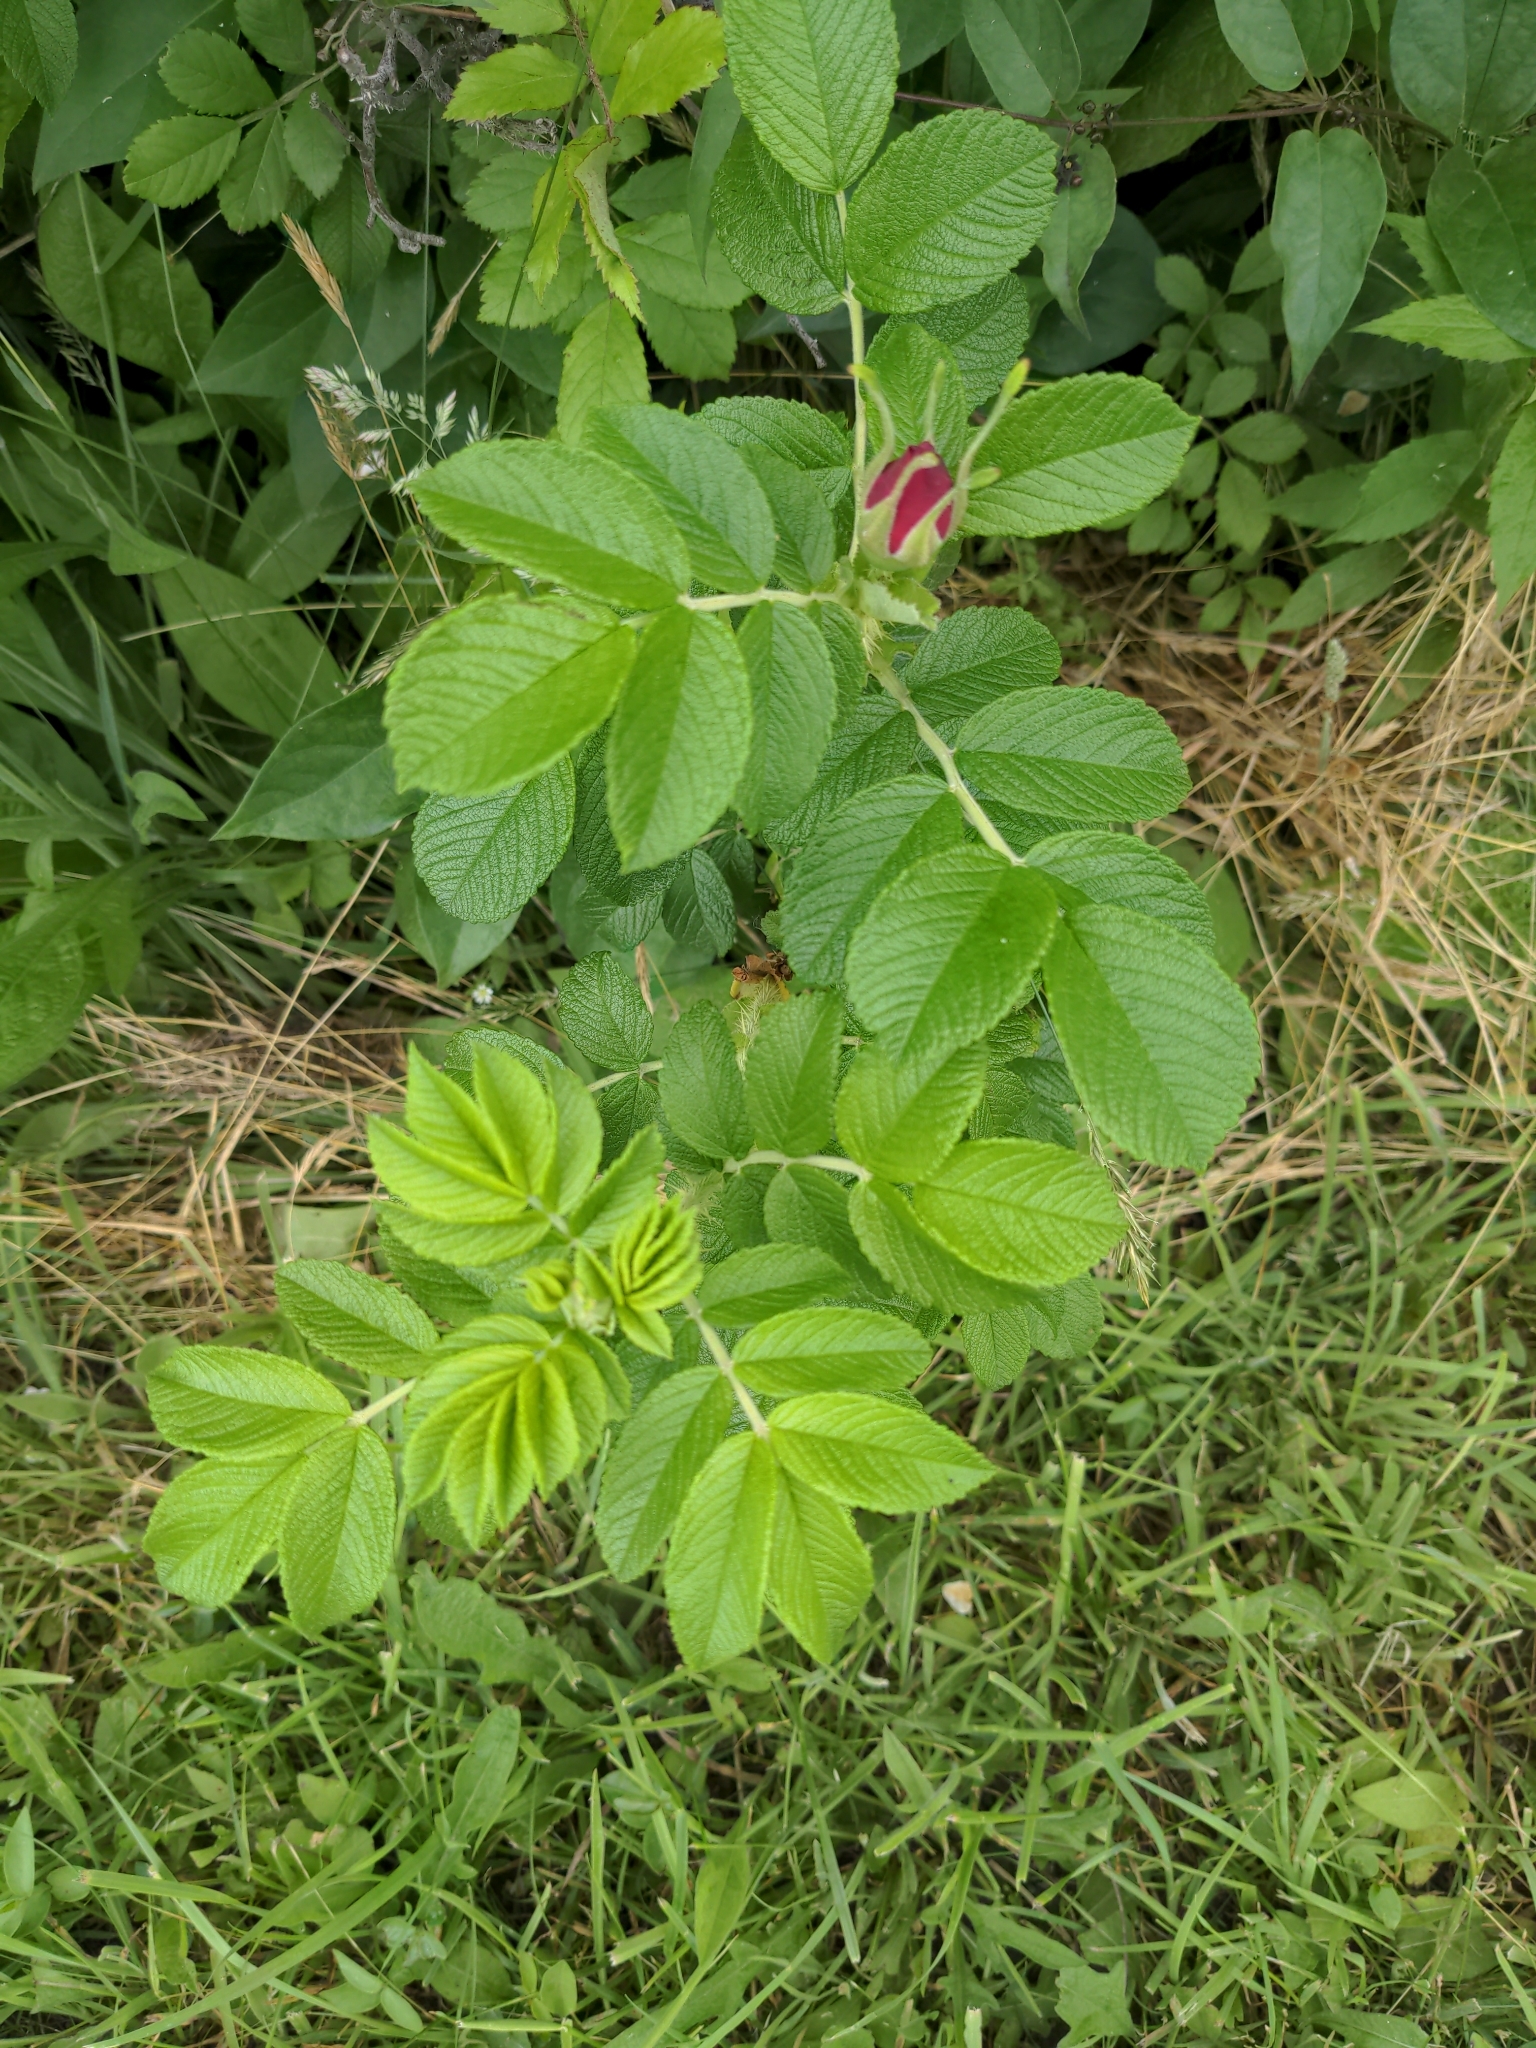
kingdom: Plantae
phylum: Tracheophyta
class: Magnoliopsida
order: Rosales
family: Rosaceae
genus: Rosa
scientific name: Rosa rugosa
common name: Japanese rose
